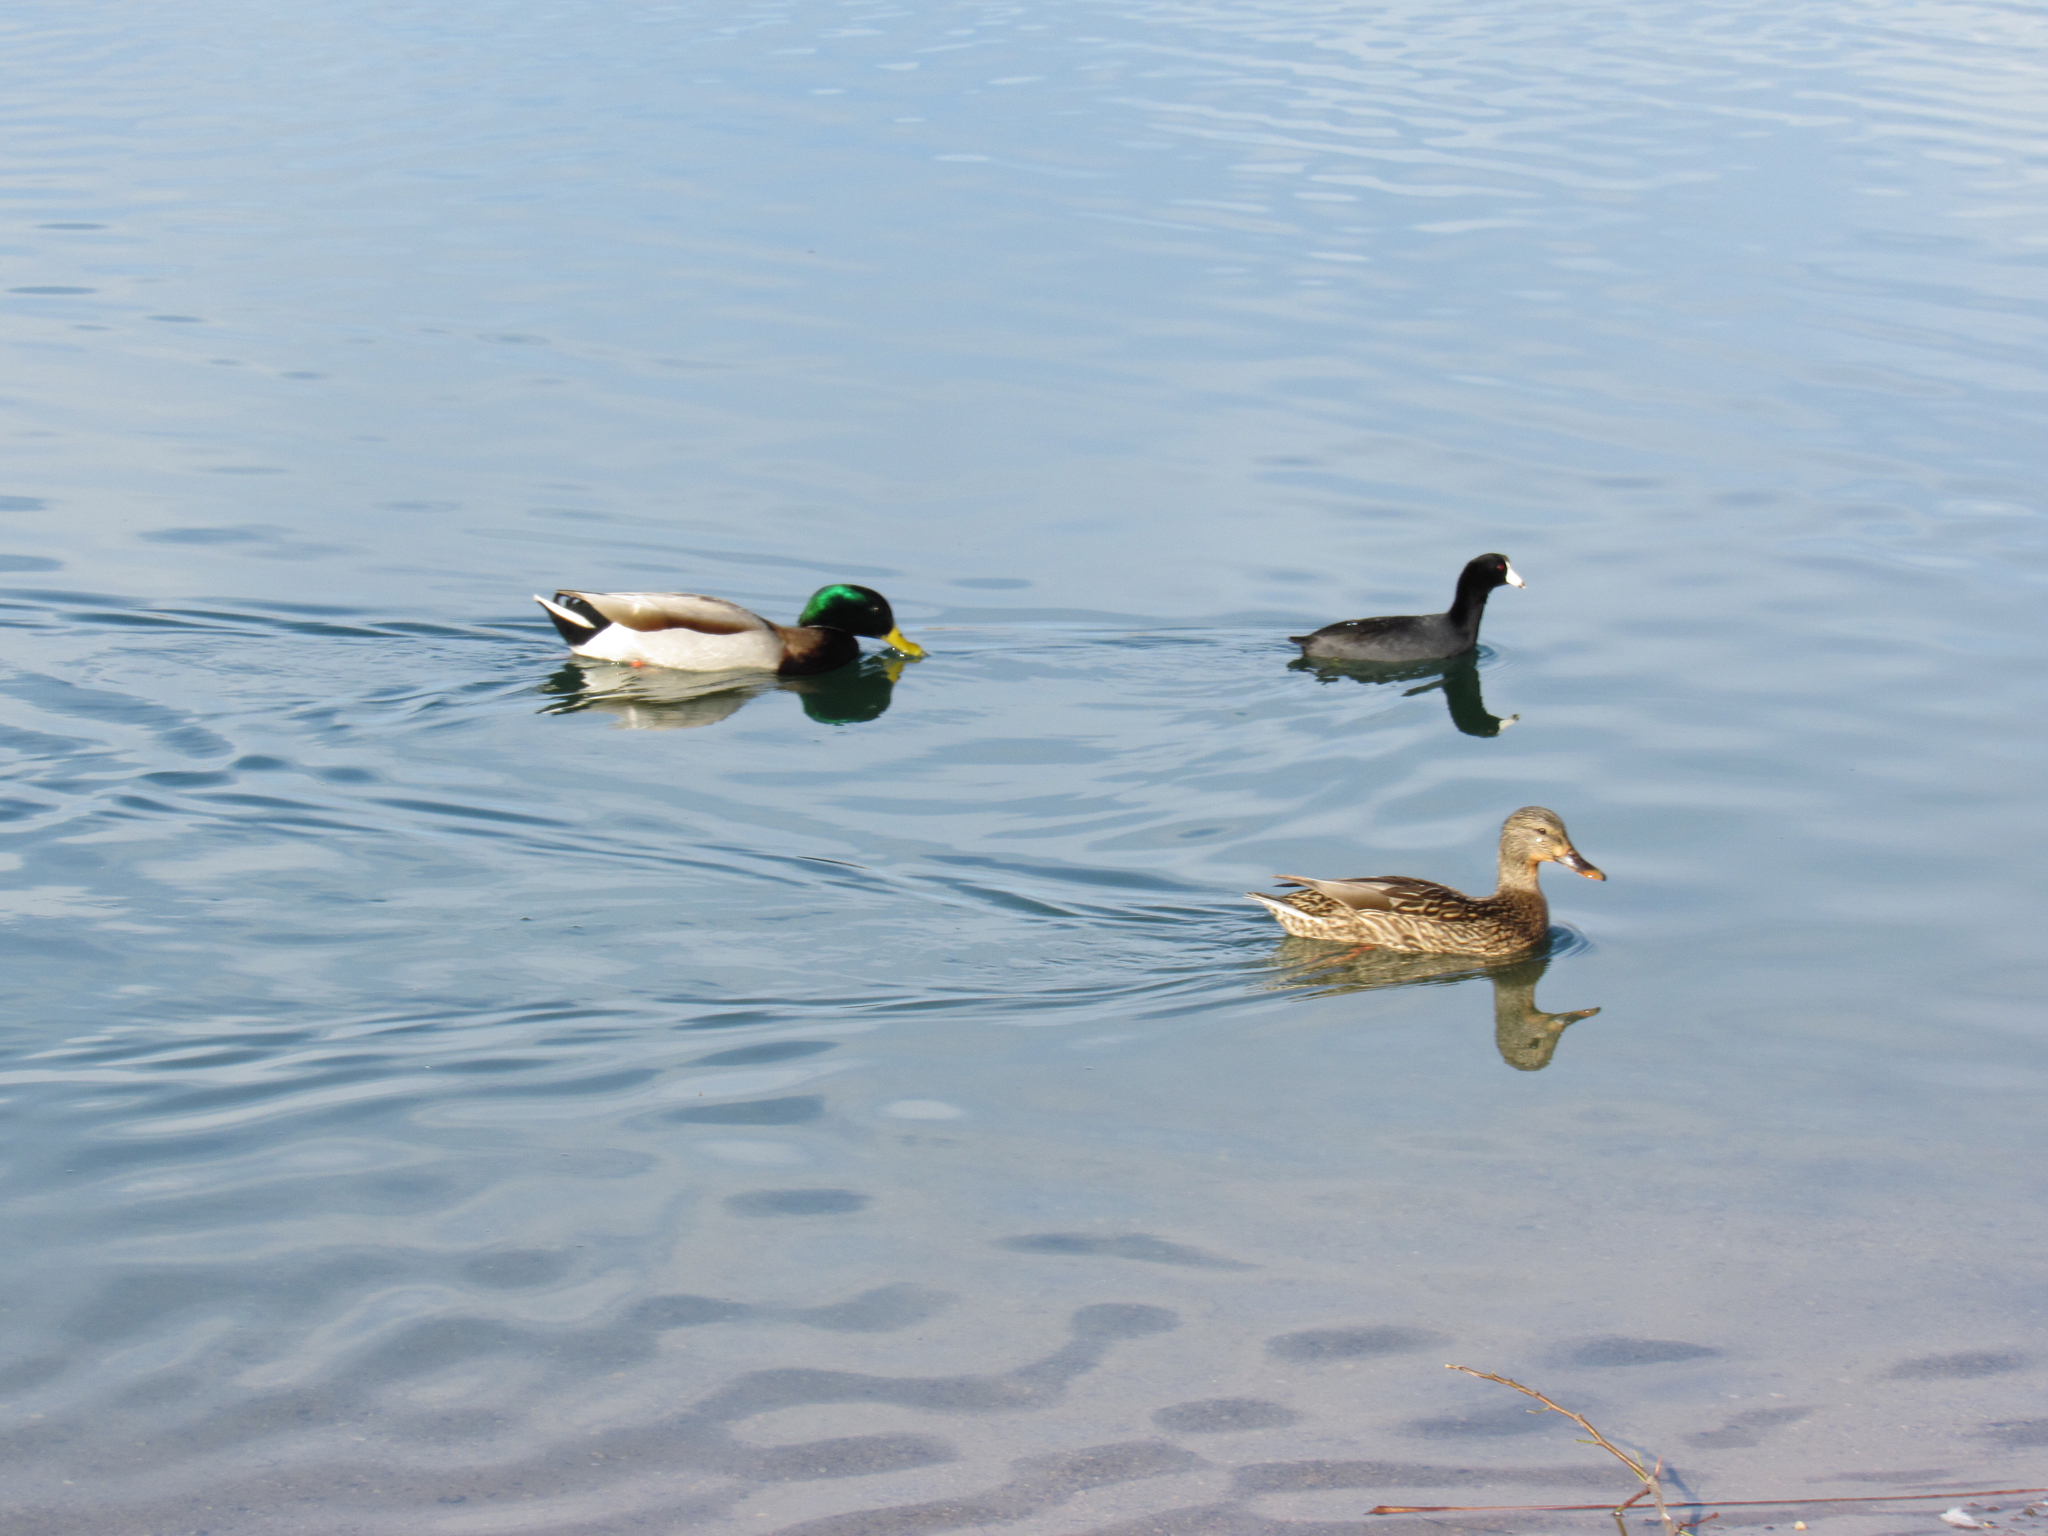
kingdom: Animalia
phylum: Chordata
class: Aves
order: Anseriformes
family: Anatidae
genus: Anas
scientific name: Anas platyrhynchos
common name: Mallard
